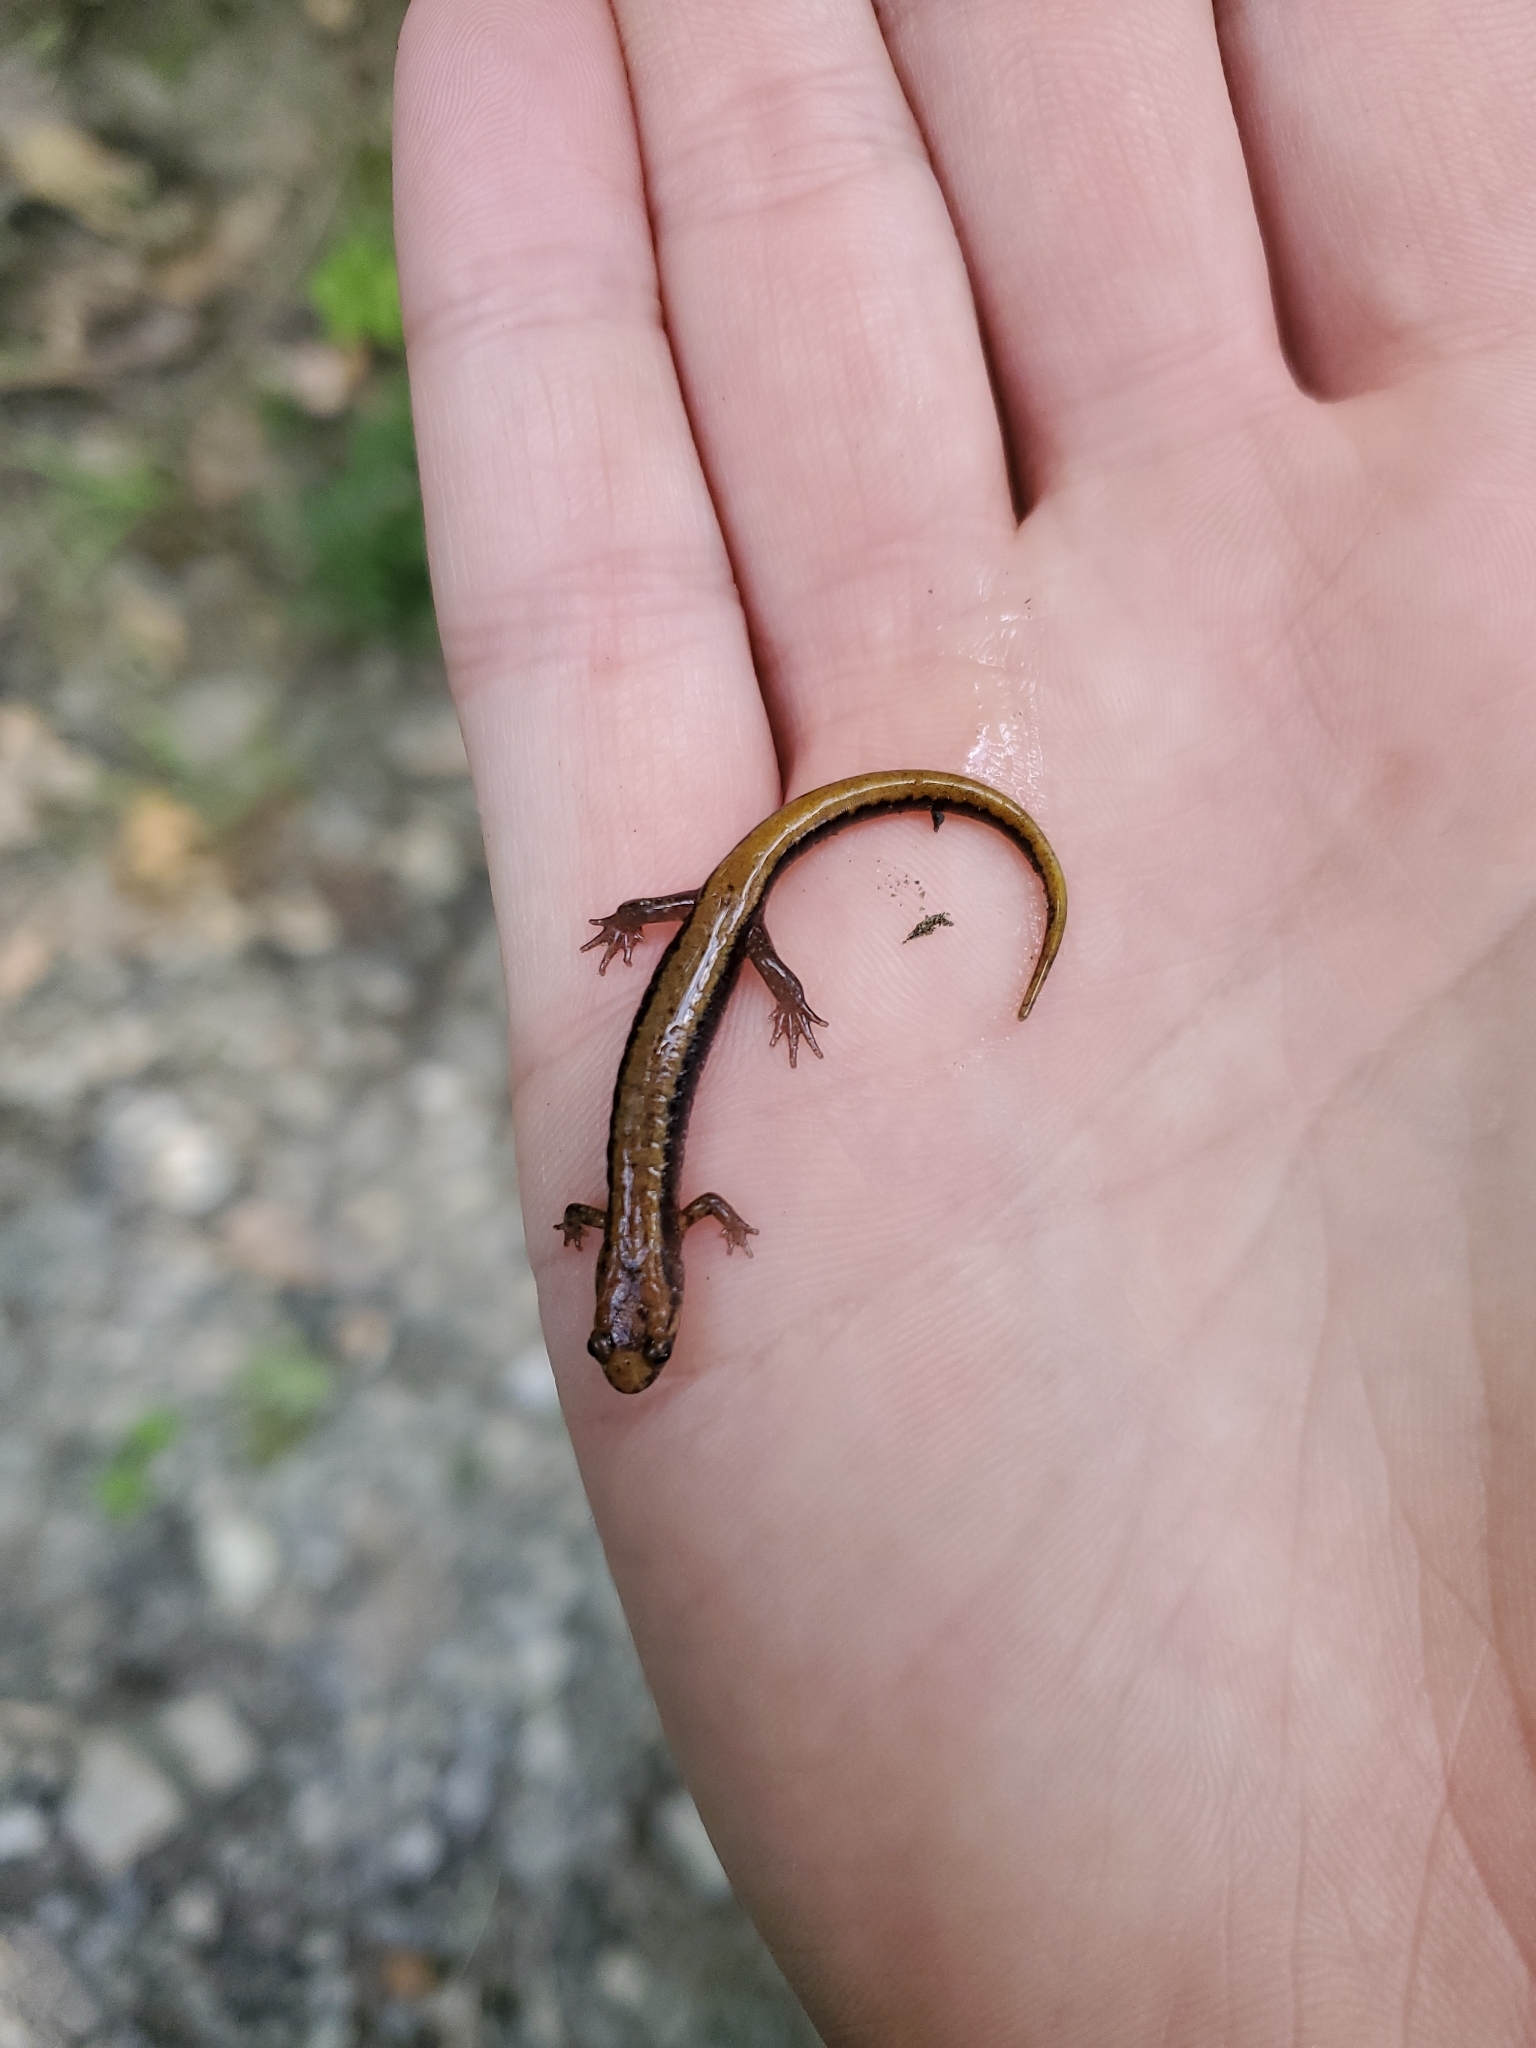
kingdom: Animalia
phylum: Chordata
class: Amphibia
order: Caudata
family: Plethodontidae
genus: Desmognathus
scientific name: Desmognathus ochrophaeus
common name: Allegheny mountain dusky salamander
